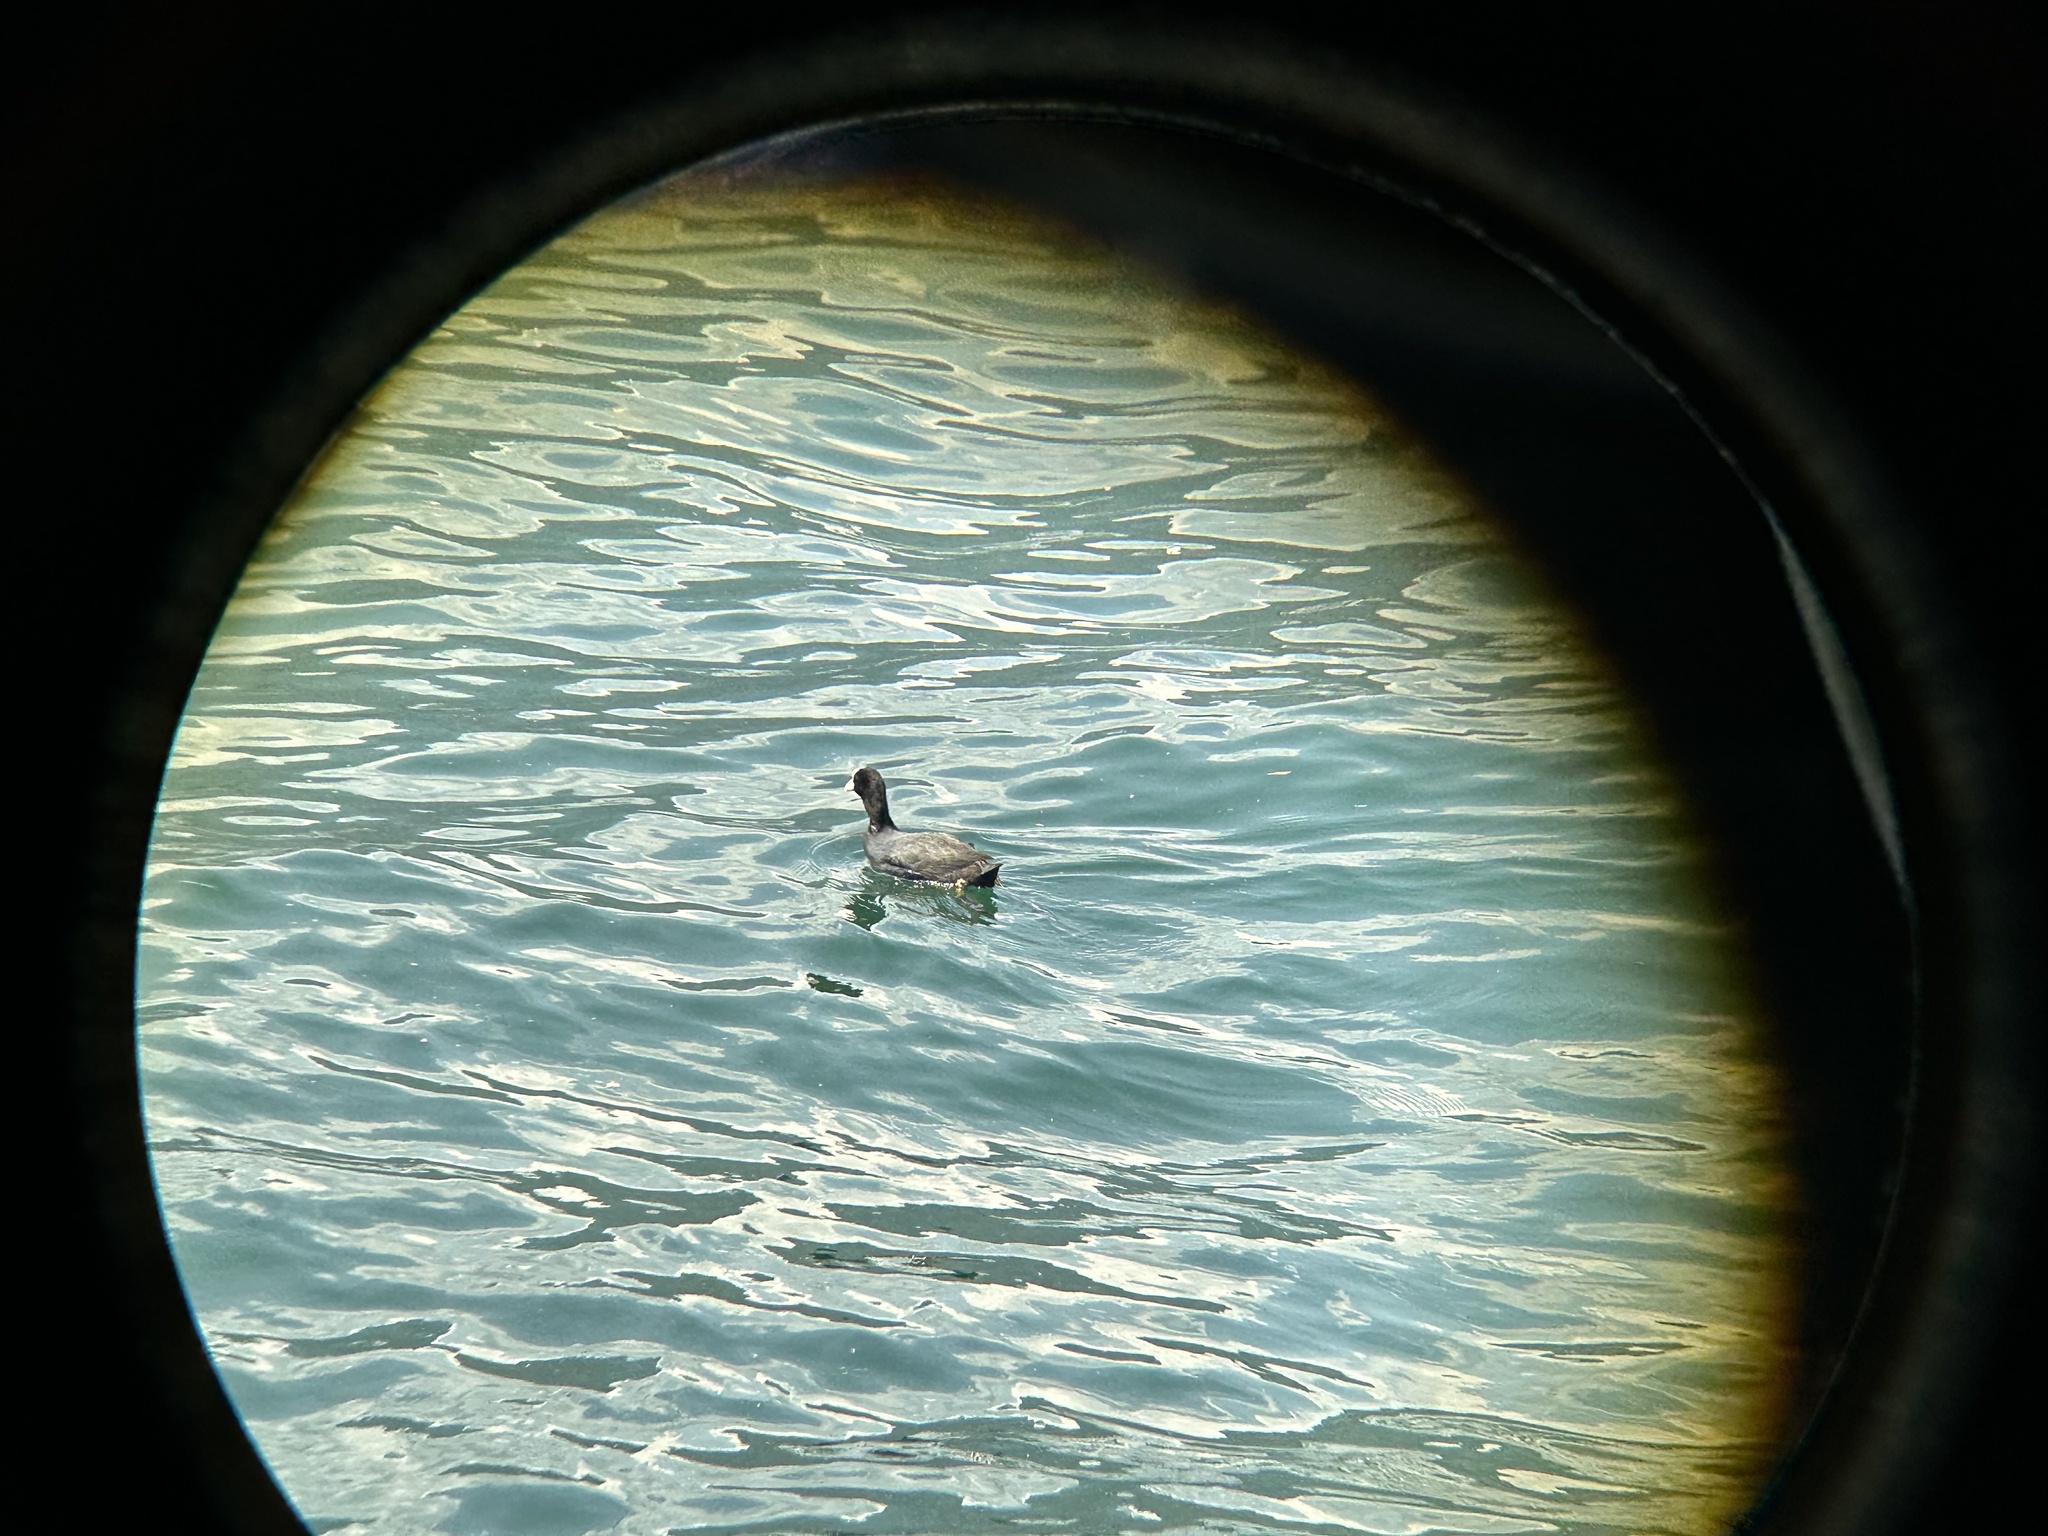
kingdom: Animalia
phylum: Chordata
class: Aves
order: Gruiformes
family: Rallidae
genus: Fulica
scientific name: Fulica atra
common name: Eurasian coot
